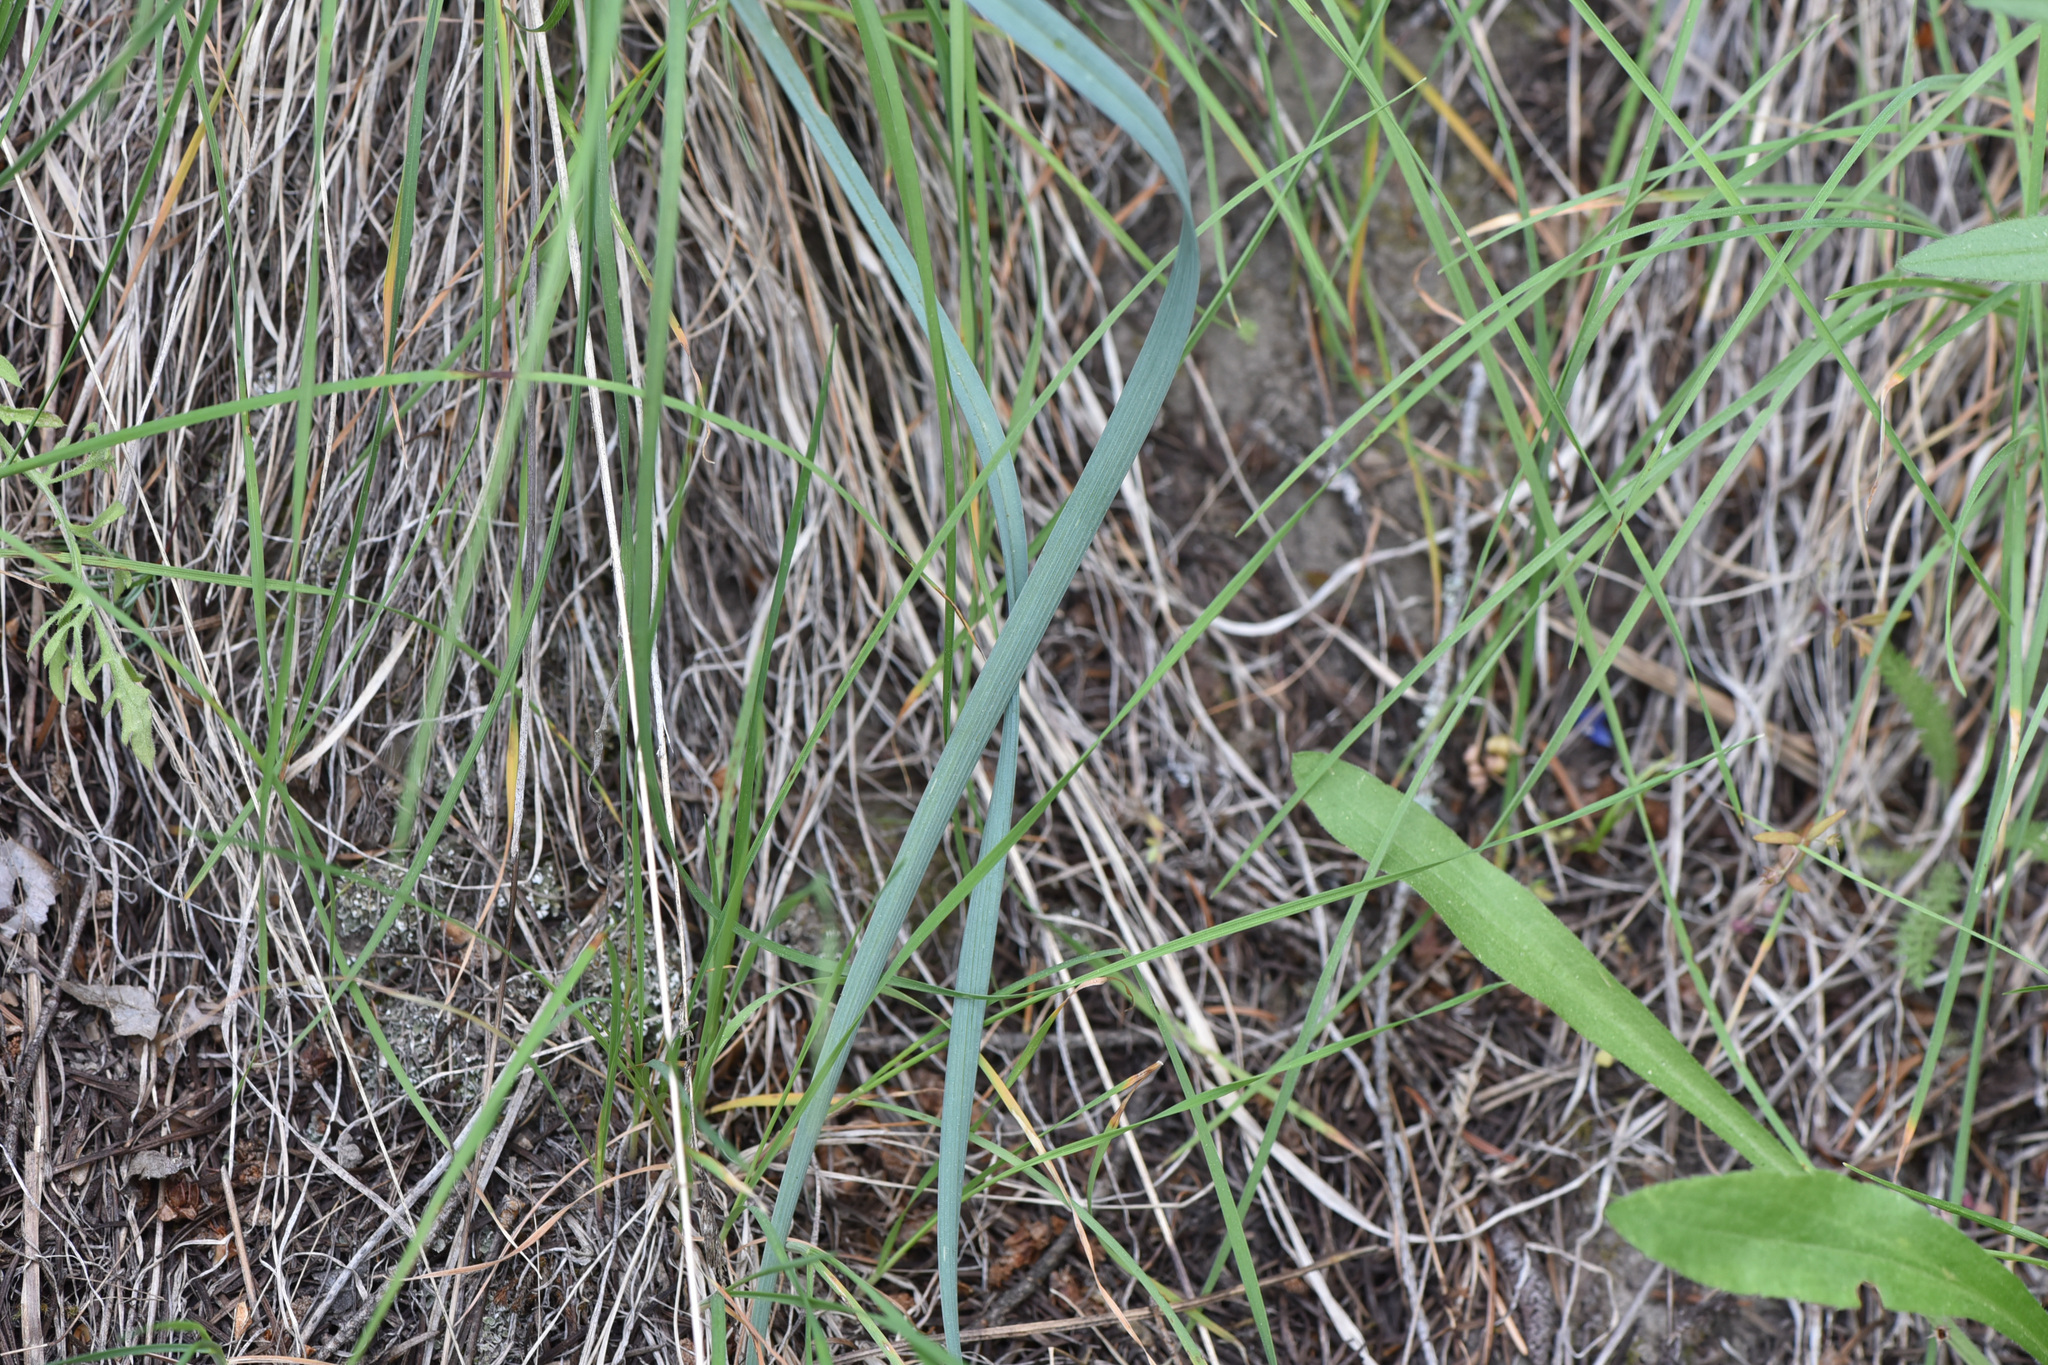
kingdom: Plantae
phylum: Tracheophyta
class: Liliopsida
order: Liliales
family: Liliaceae
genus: Calochortus
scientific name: Calochortus macrocarpus
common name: Green-band mariposa lily
